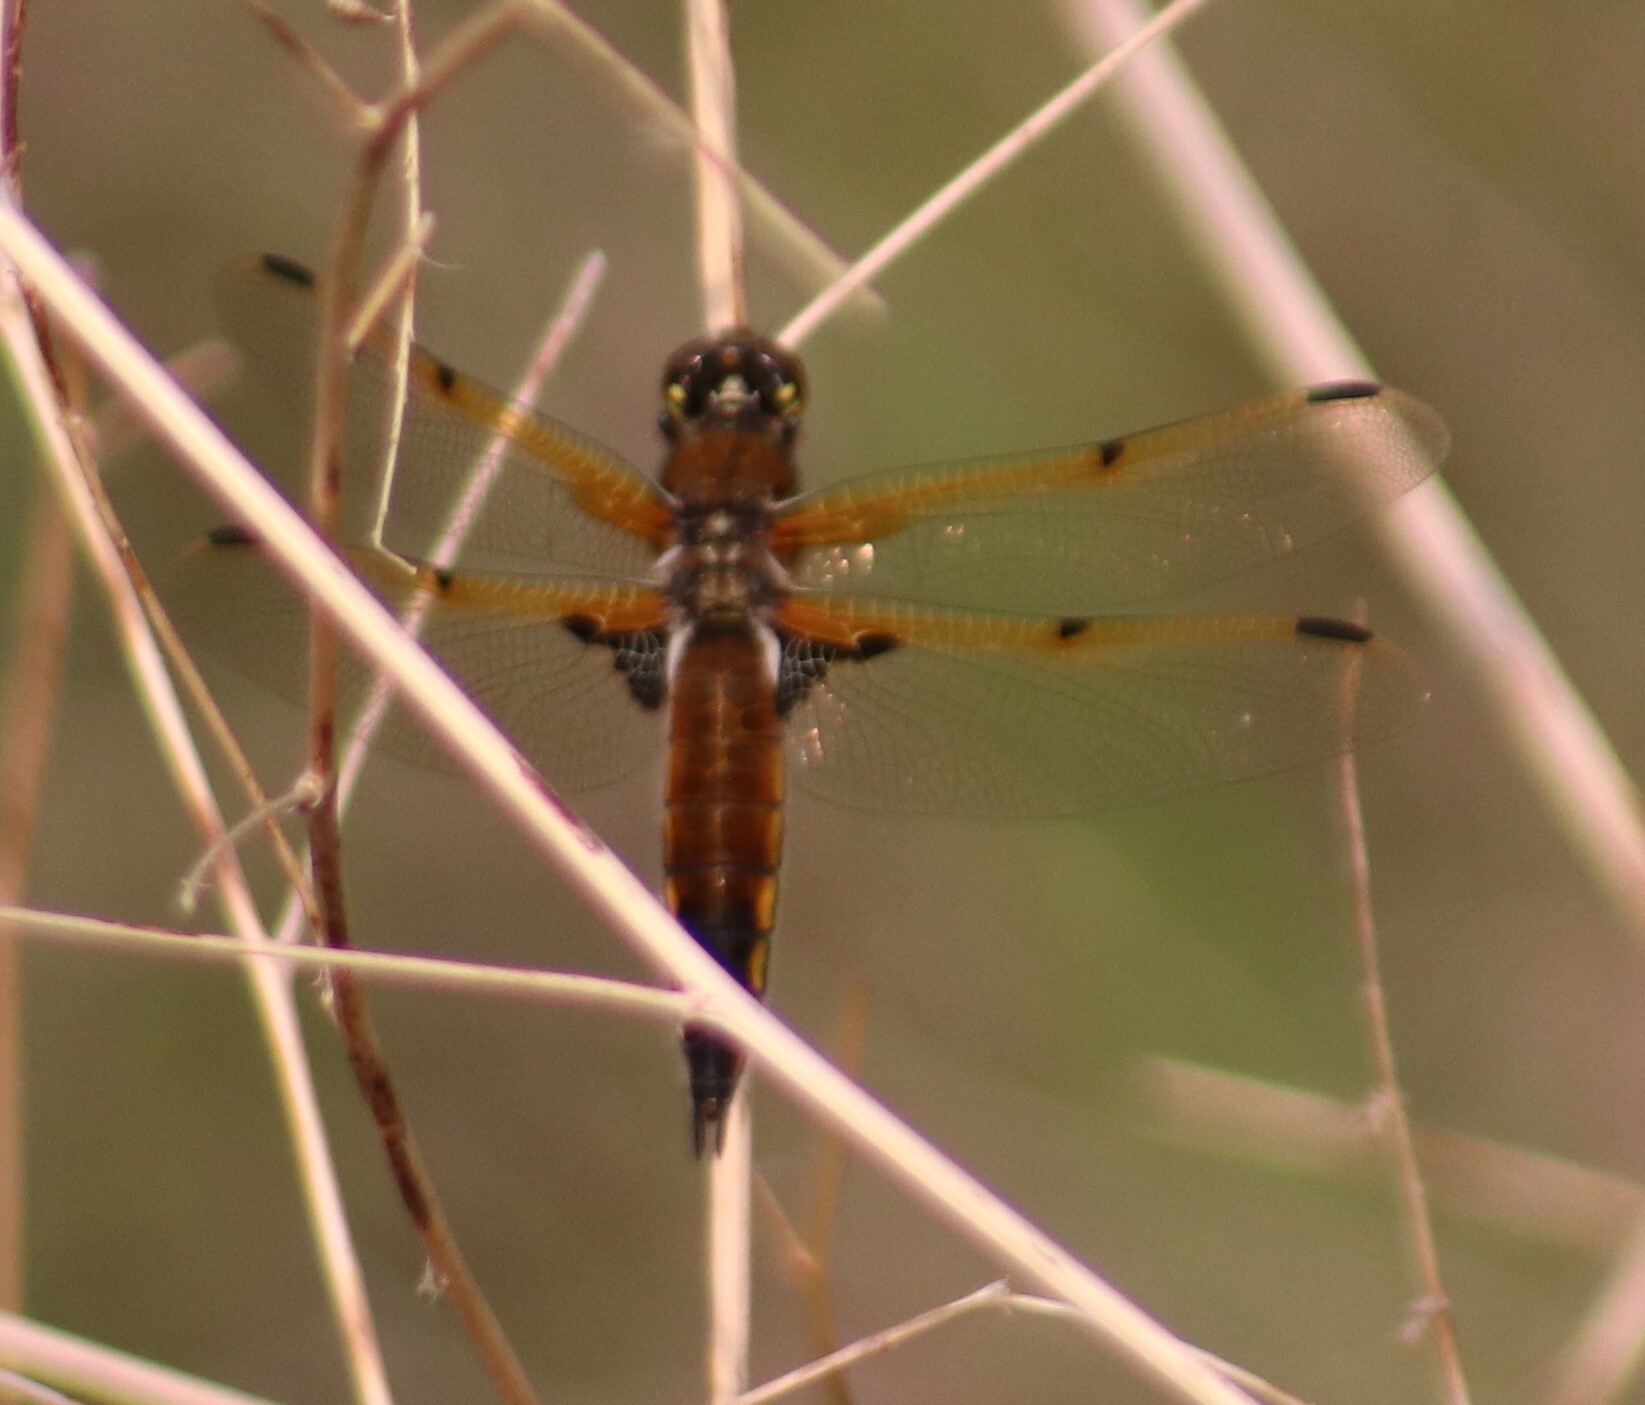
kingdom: Animalia
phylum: Arthropoda
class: Insecta
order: Odonata
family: Libellulidae
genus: Libellula
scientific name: Libellula quadrimaculata
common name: Four-spotted chaser
